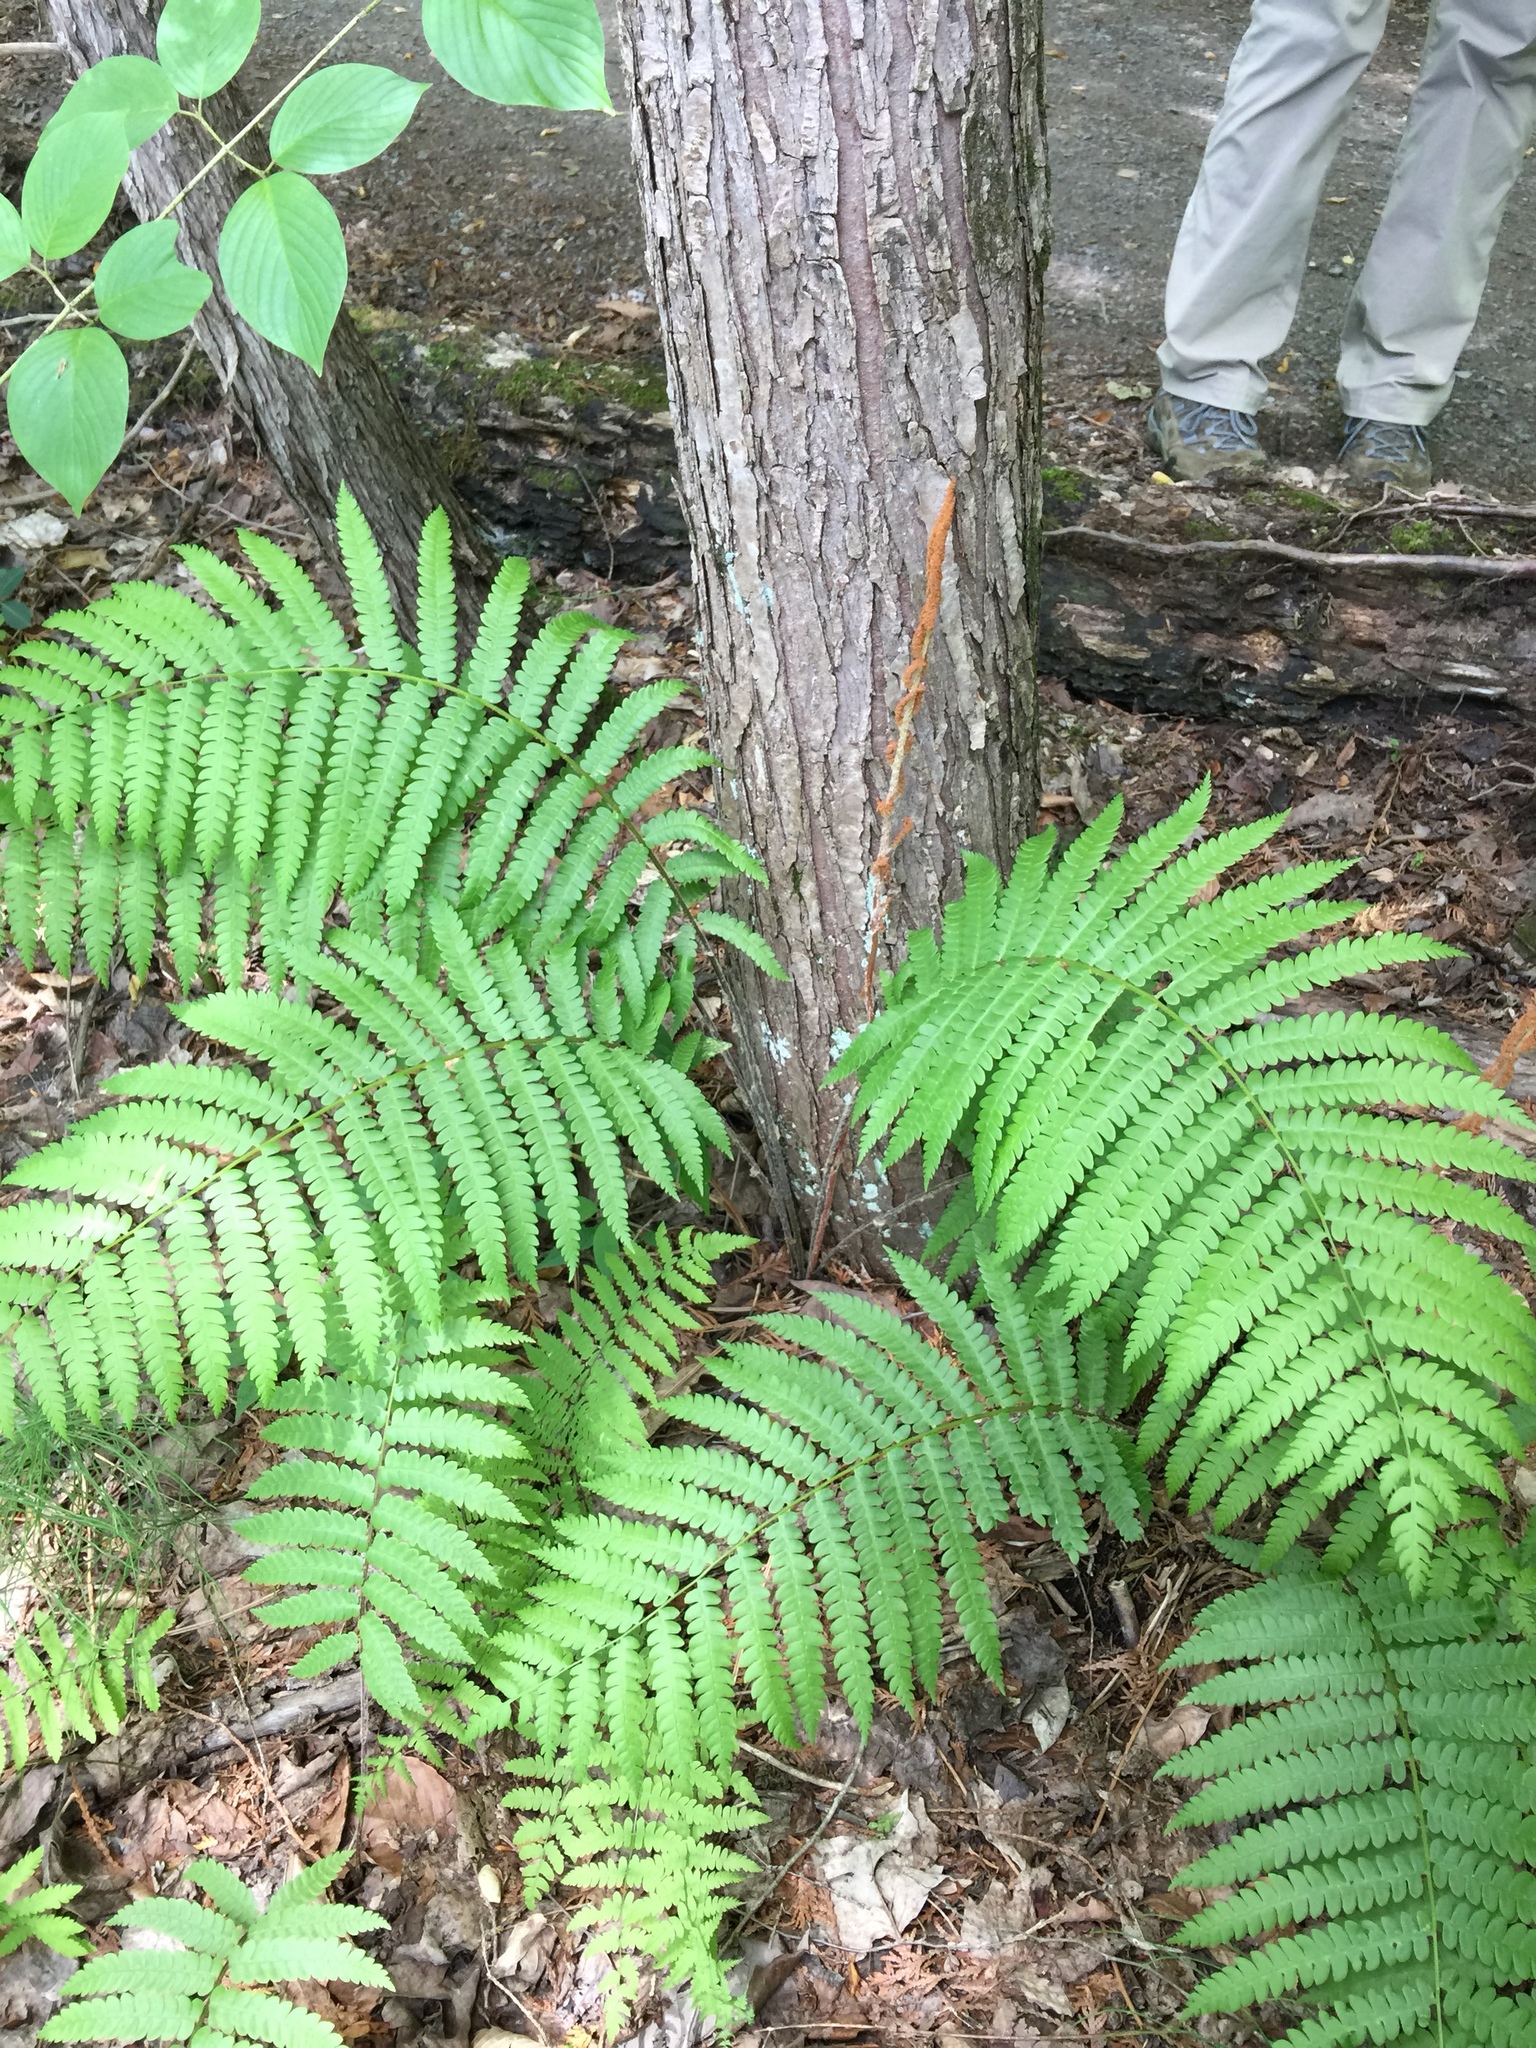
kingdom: Plantae
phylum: Tracheophyta
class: Polypodiopsida
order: Osmundales
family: Osmundaceae
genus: Osmundastrum
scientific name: Osmundastrum cinnamomeum
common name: Cinnamon fern
